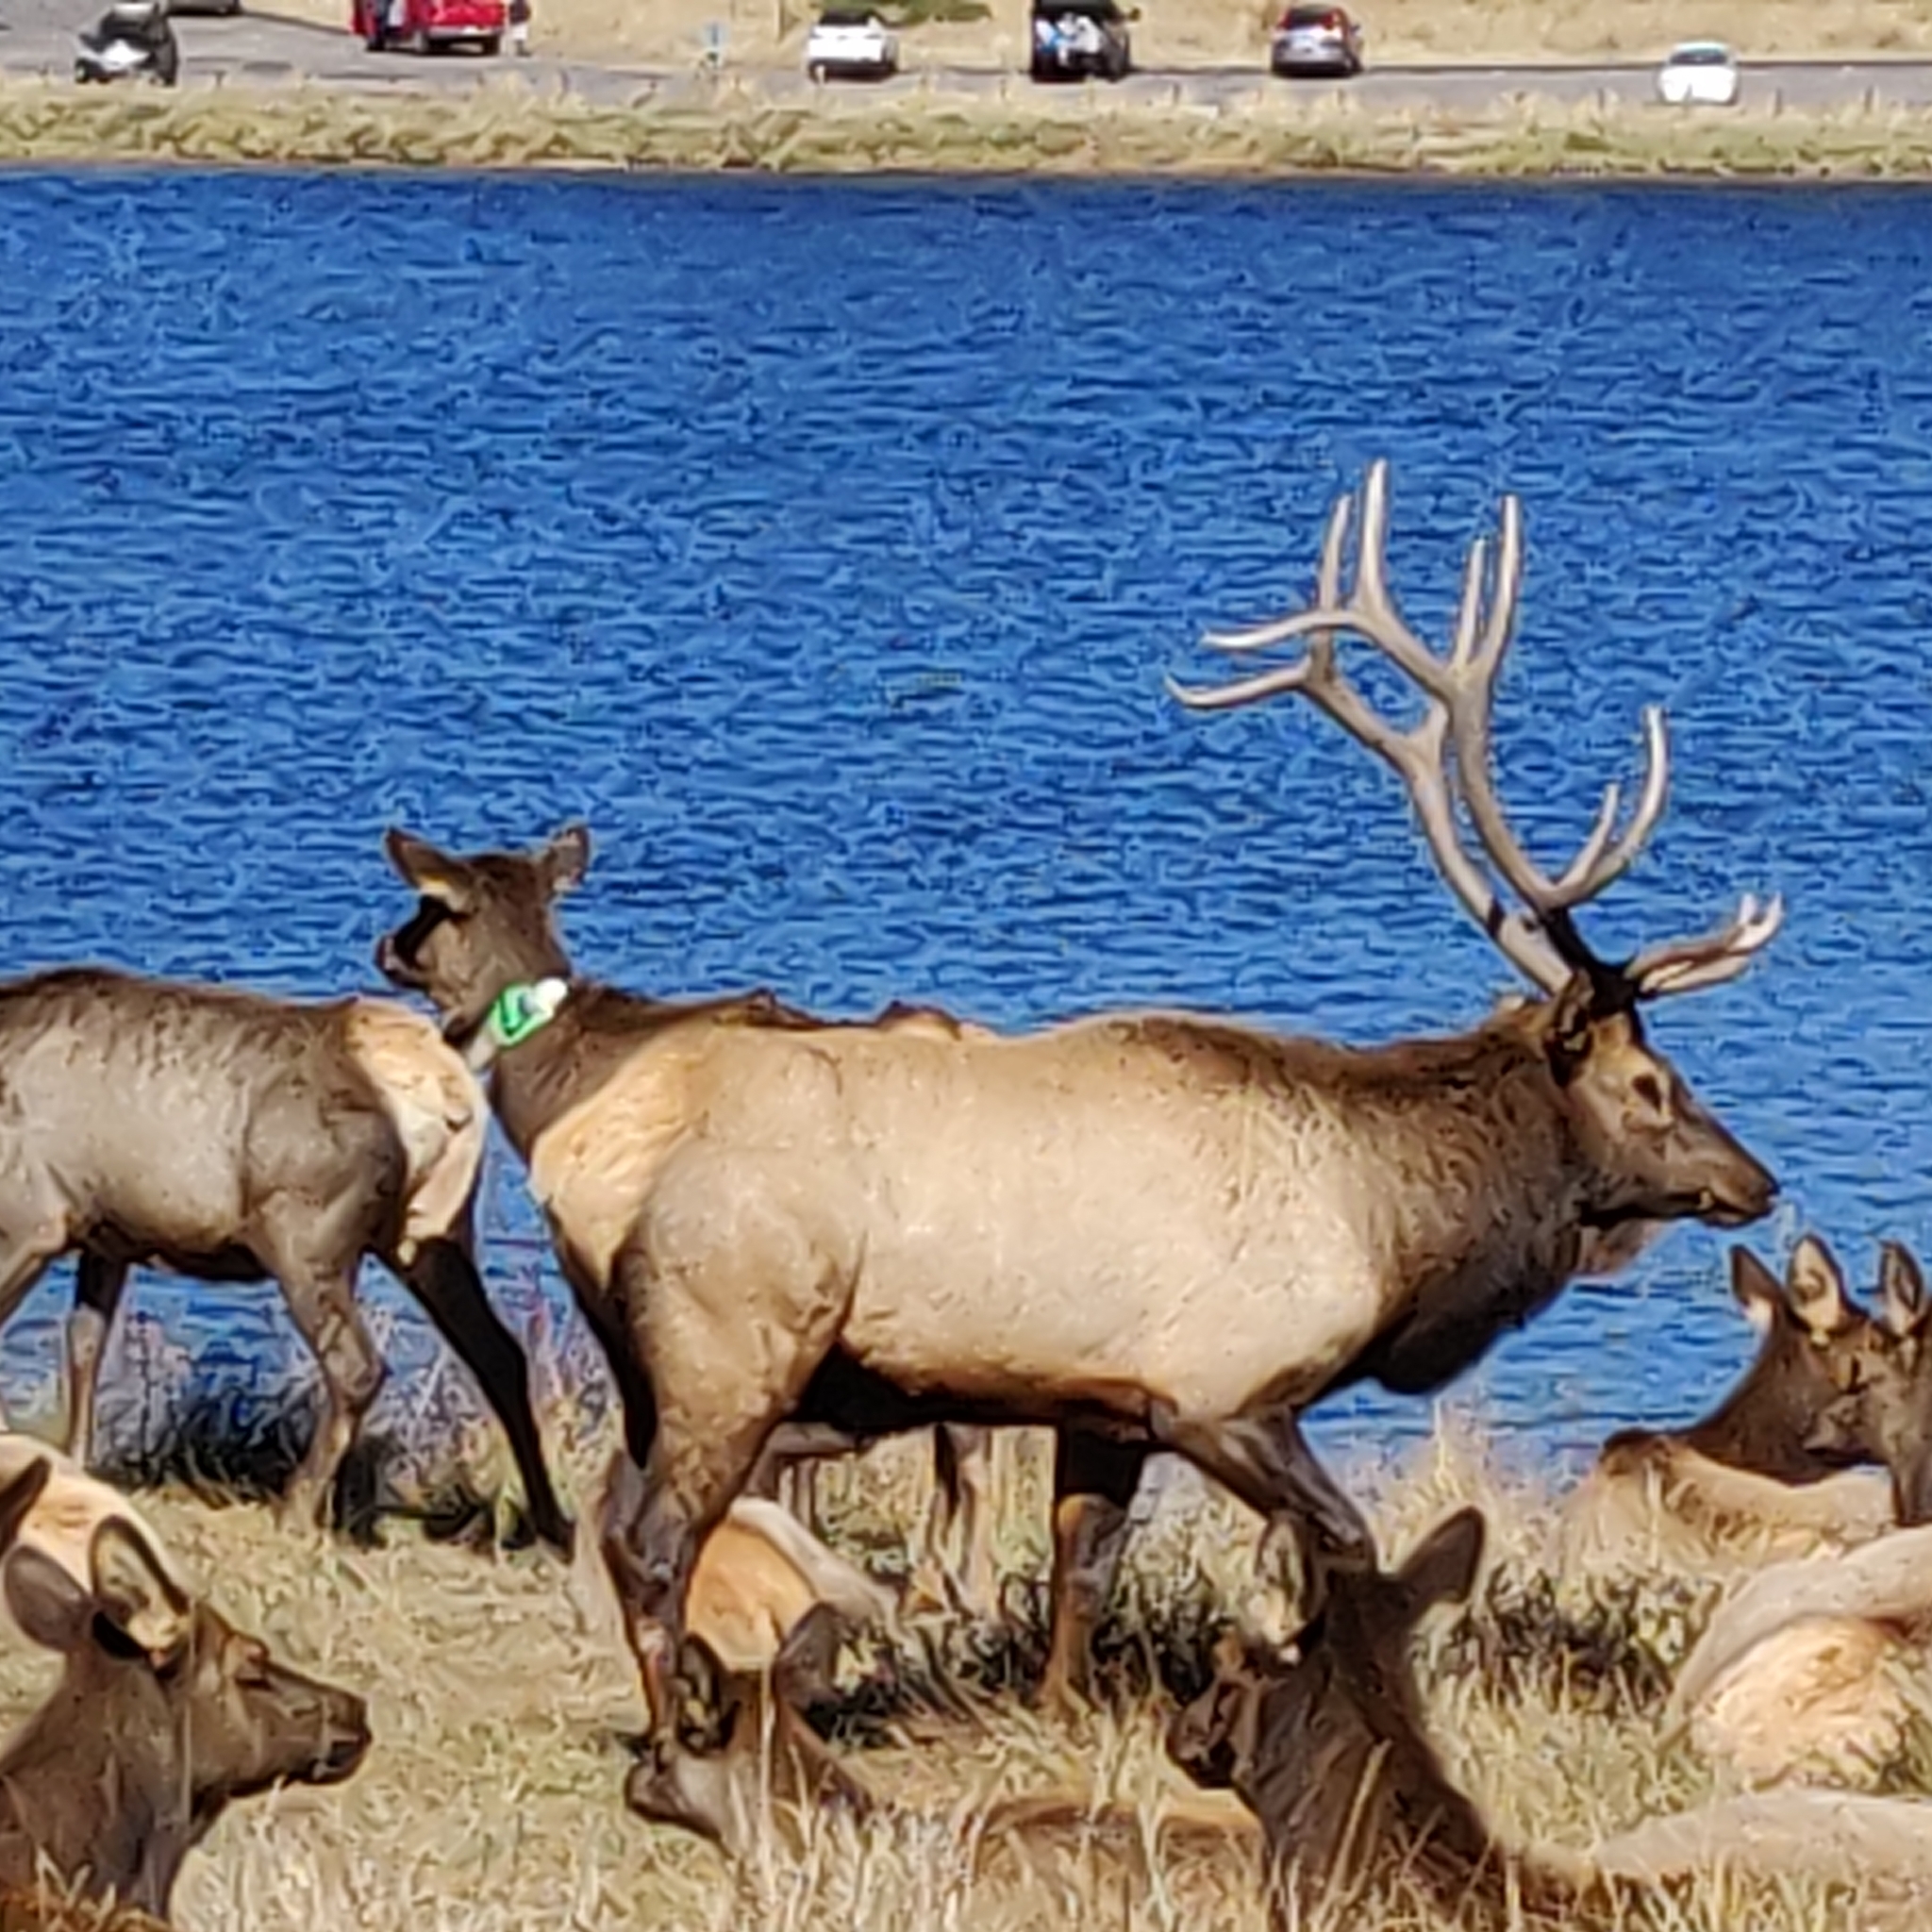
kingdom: Animalia
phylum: Chordata
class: Mammalia
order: Artiodactyla
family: Cervidae
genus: Cervus
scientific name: Cervus elaphus
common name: Red deer
